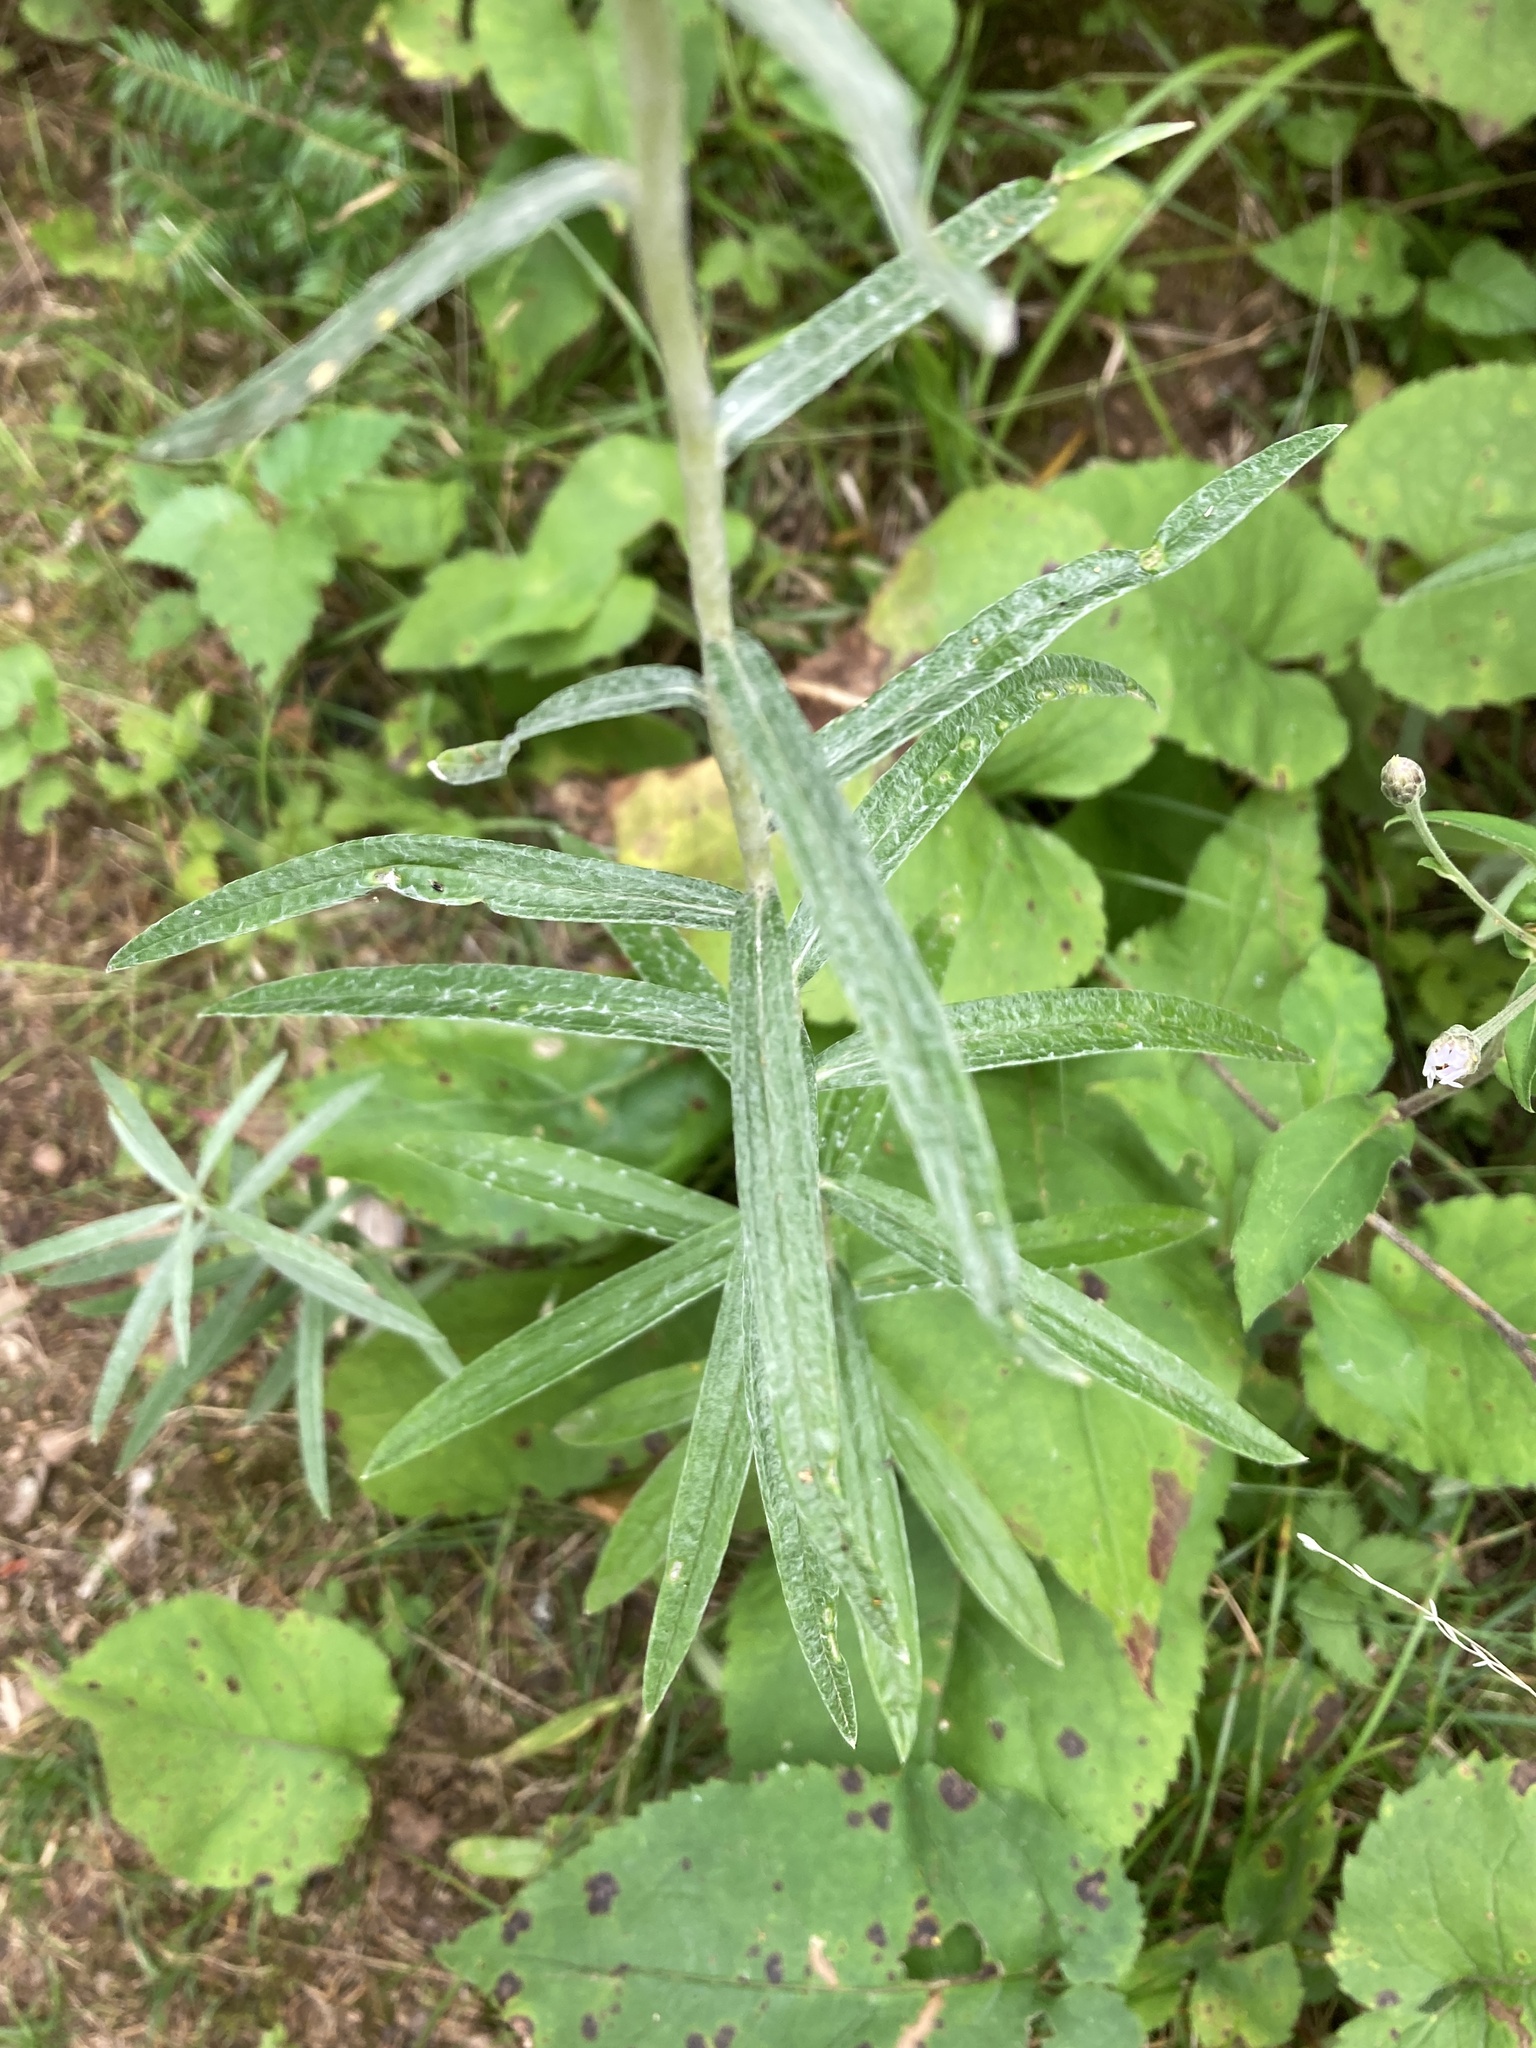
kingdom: Plantae
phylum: Tracheophyta
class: Magnoliopsida
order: Asterales
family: Asteraceae
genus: Anaphalis
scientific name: Anaphalis margaritacea
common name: Pearly everlasting
